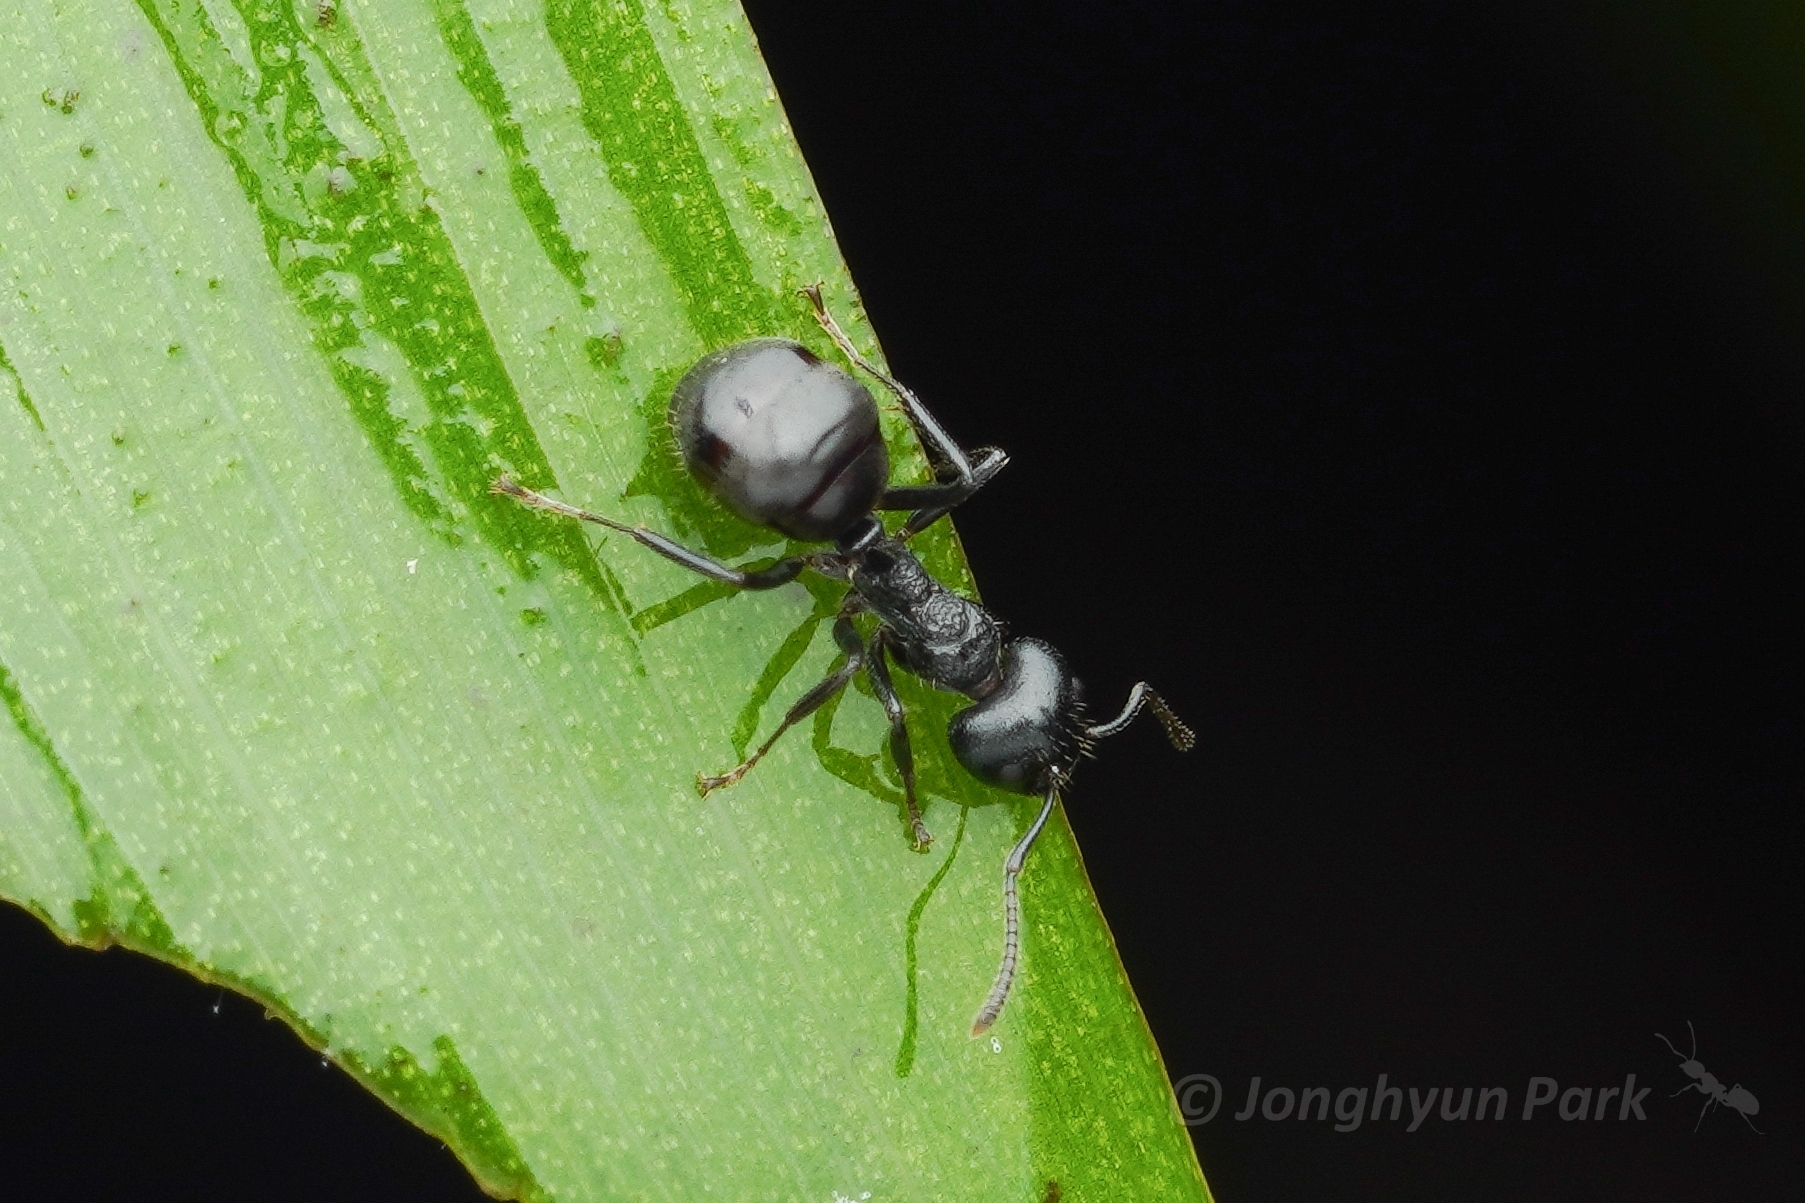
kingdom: Animalia
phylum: Arthropoda
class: Insecta
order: Hymenoptera
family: Formicidae
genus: Dolichoderus
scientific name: Dolichoderus carbonarius
